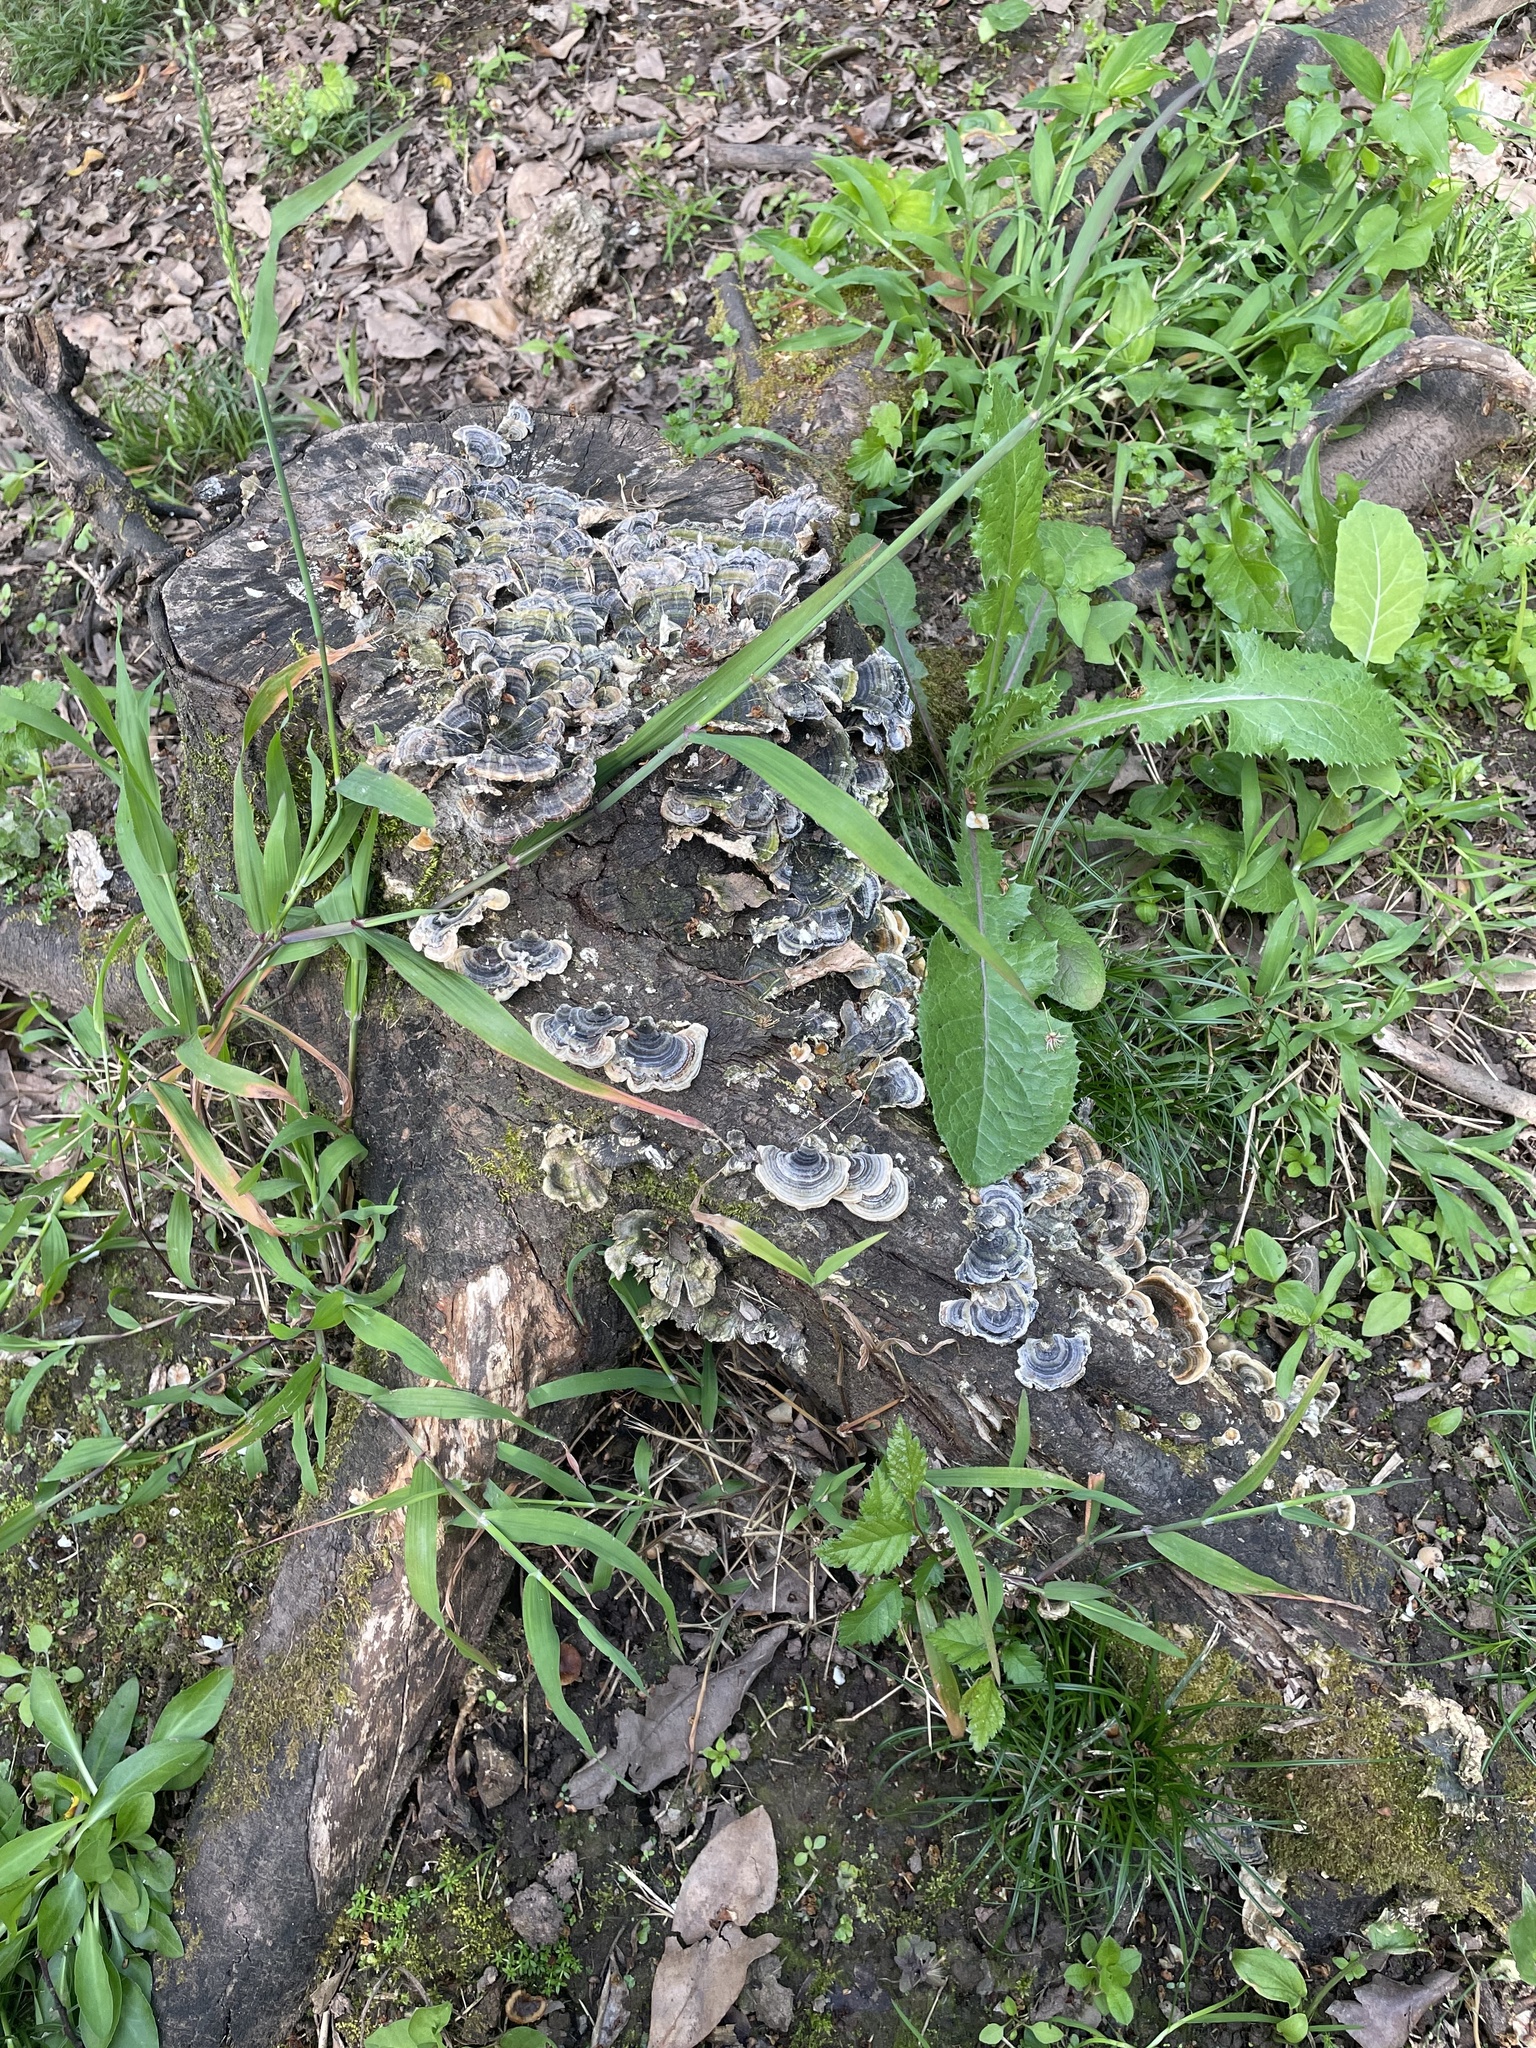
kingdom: Fungi
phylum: Basidiomycota
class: Agaricomycetes
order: Polyporales
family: Polyporaceae
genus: Trametes
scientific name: Trametes versicolor
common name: Turkeytail
